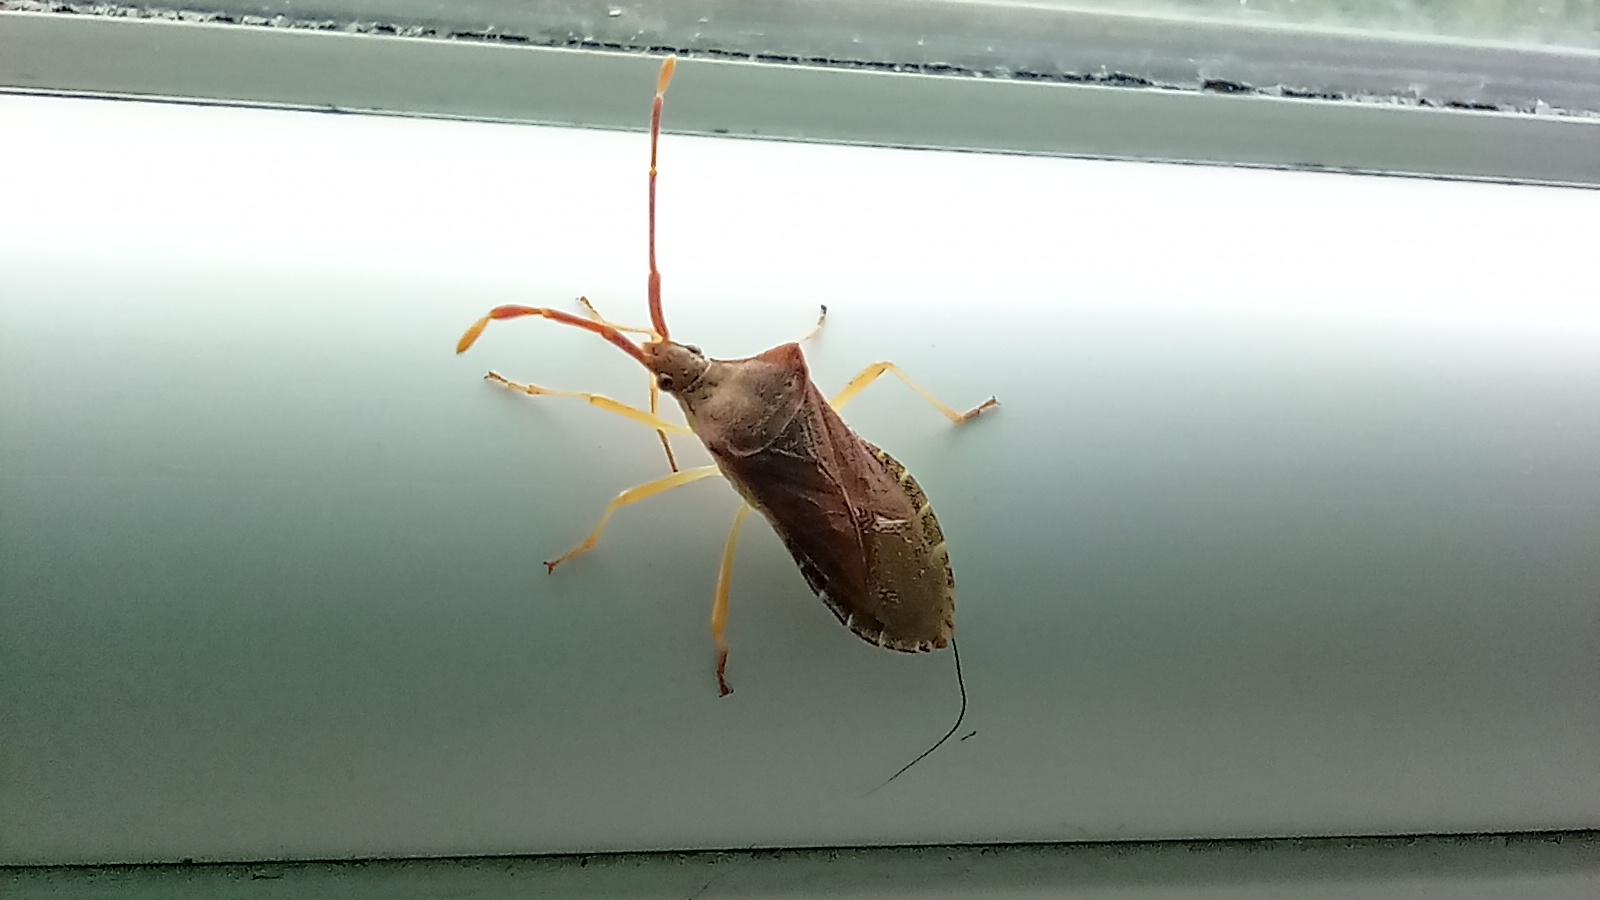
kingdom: Animalia
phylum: Arthropoda
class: Insecta
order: Hemiptera
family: Coreidae
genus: Gonocerus
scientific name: Gonocerus acuteangulatus
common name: Box bug
